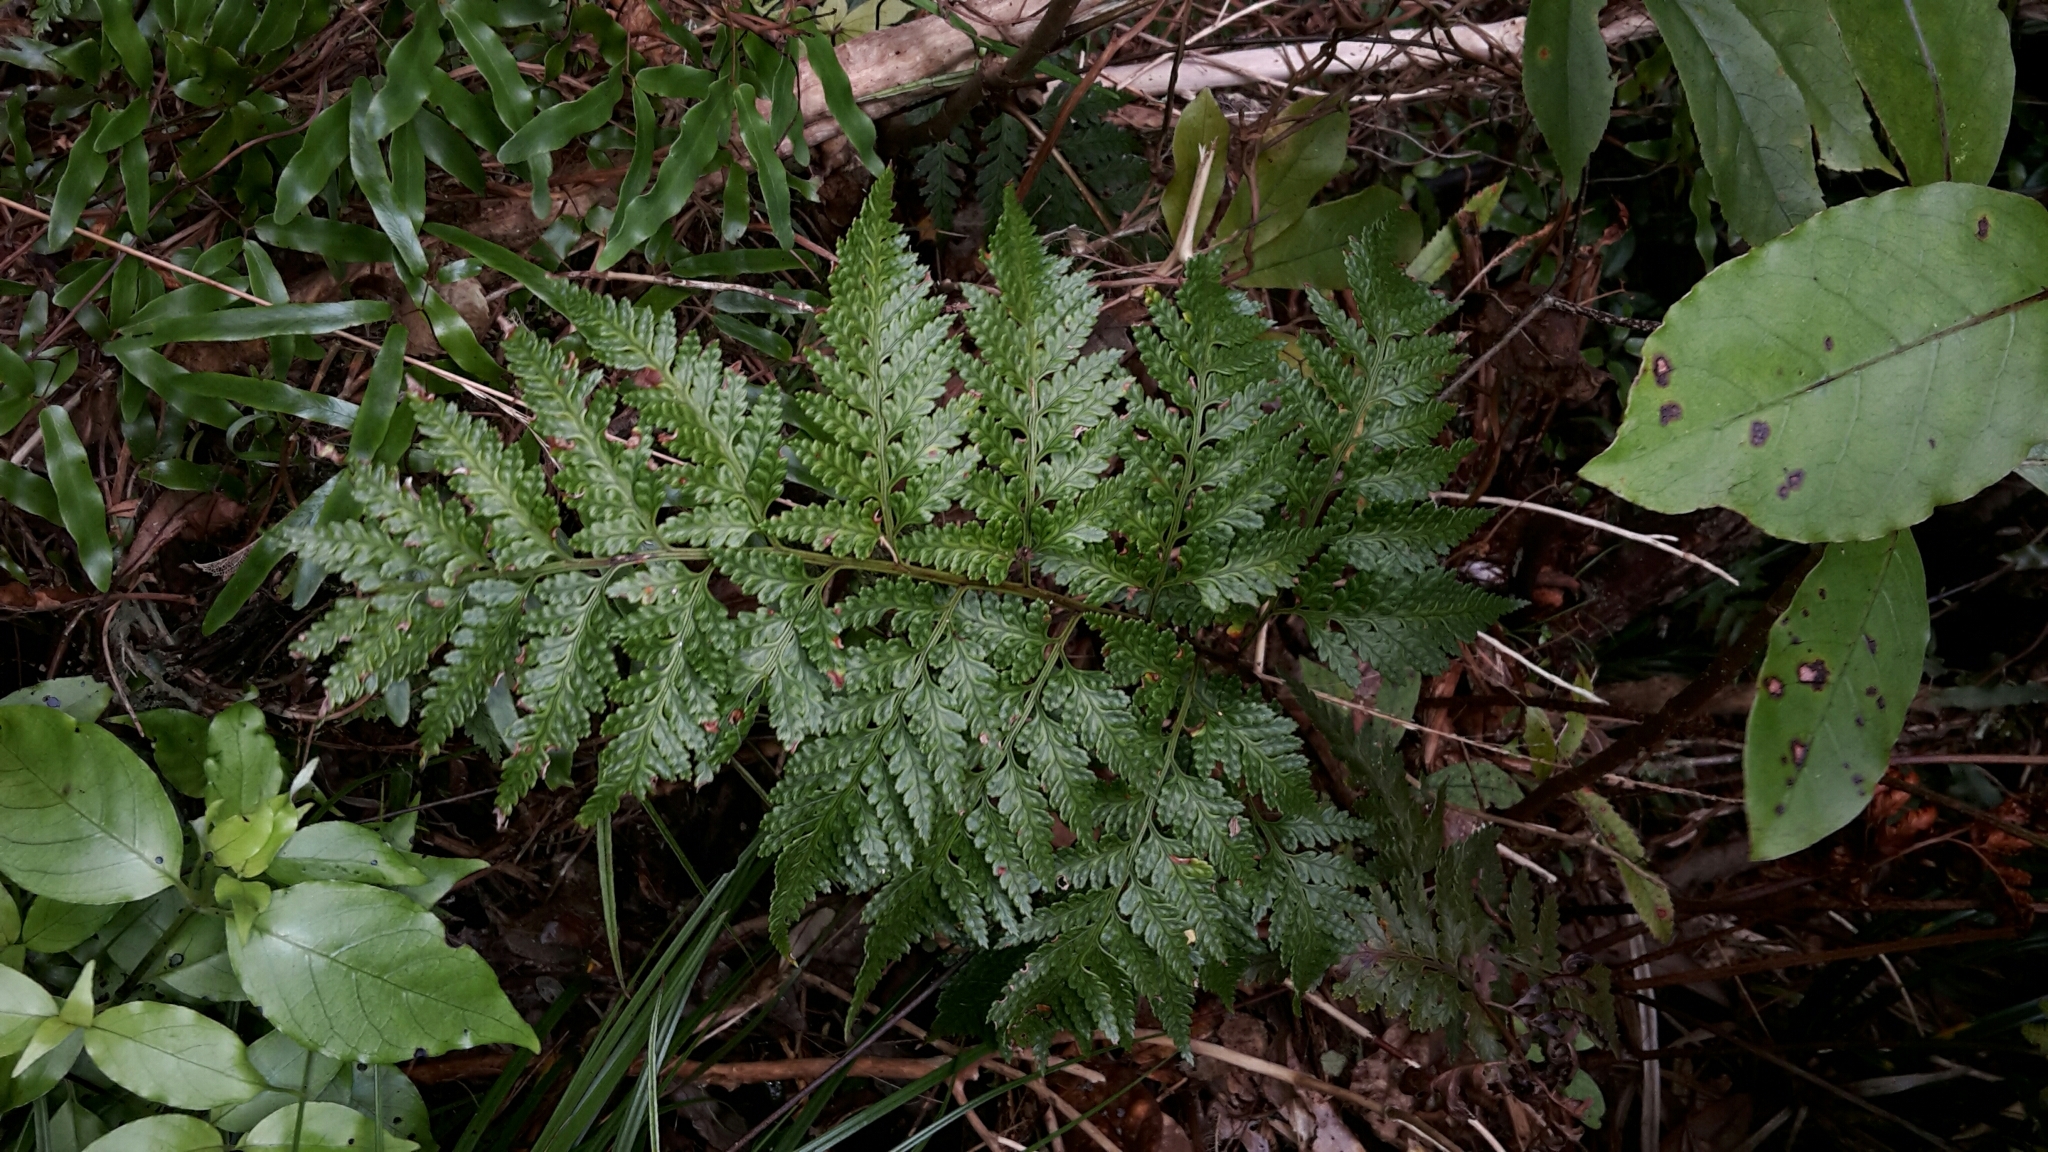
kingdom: Plantae
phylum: Tracheophyta
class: Polypodiopsida
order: Polypodiales
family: Dryopteridaceae
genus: Rumohra
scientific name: Rumohra adiantiformis
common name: Leather fern
